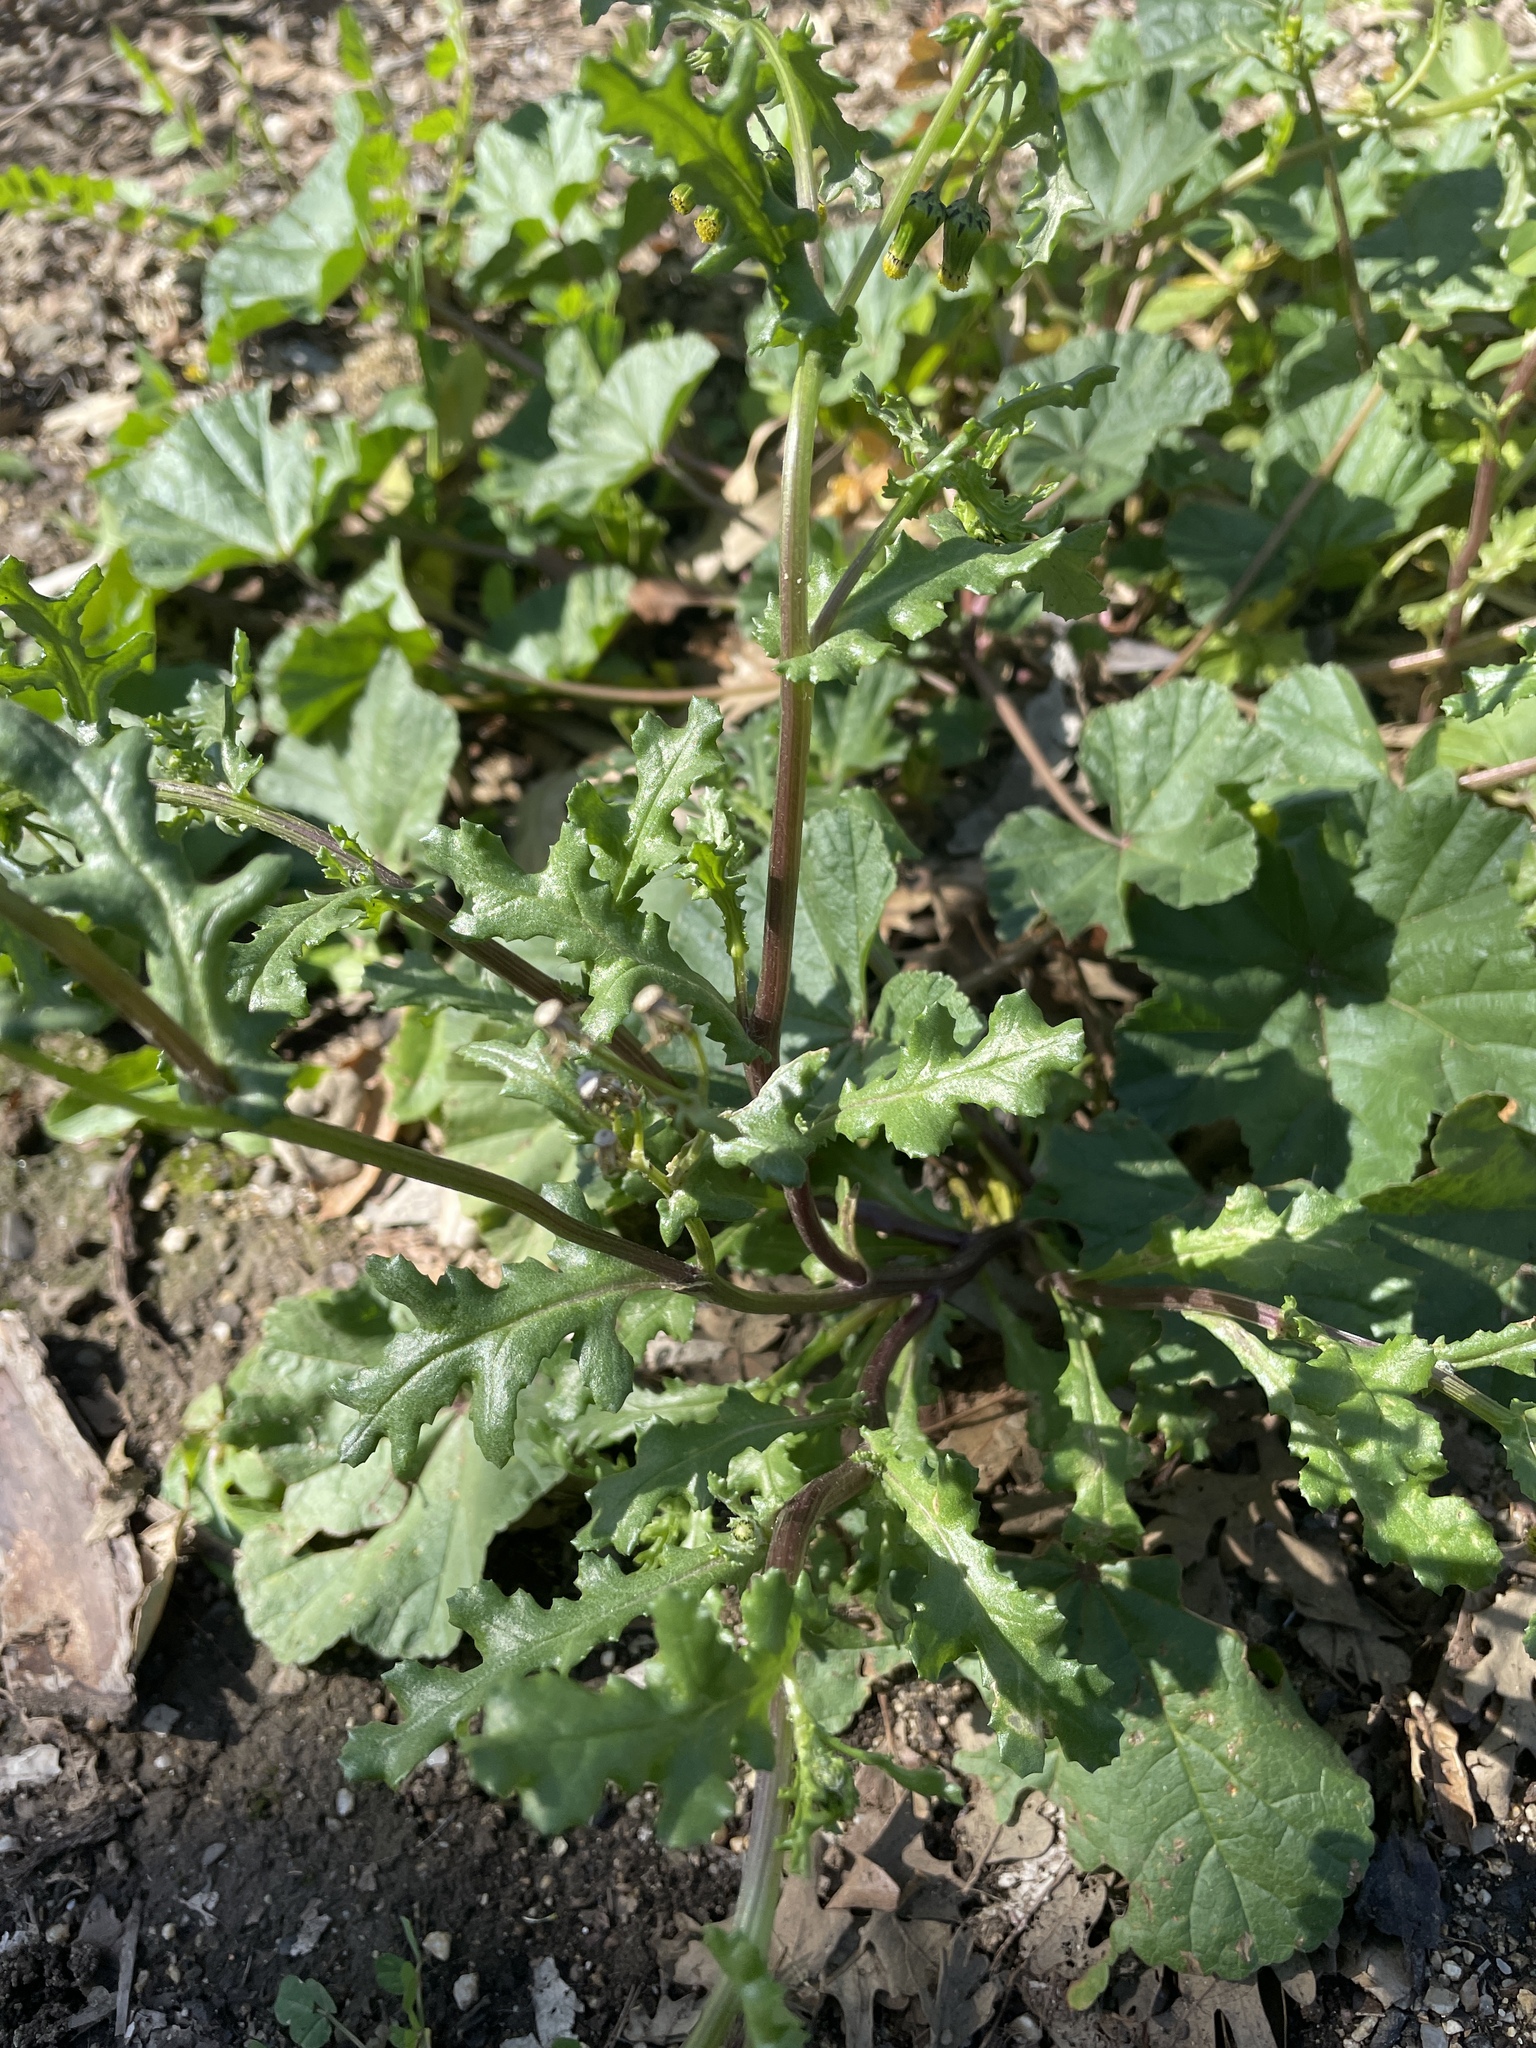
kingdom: Plantae
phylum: Tracheophyta
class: Magnoliopsida
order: Asterales
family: Asteraceae
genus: Senecio
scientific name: Senecio vulgaris
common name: Old-man-in-the-spring
